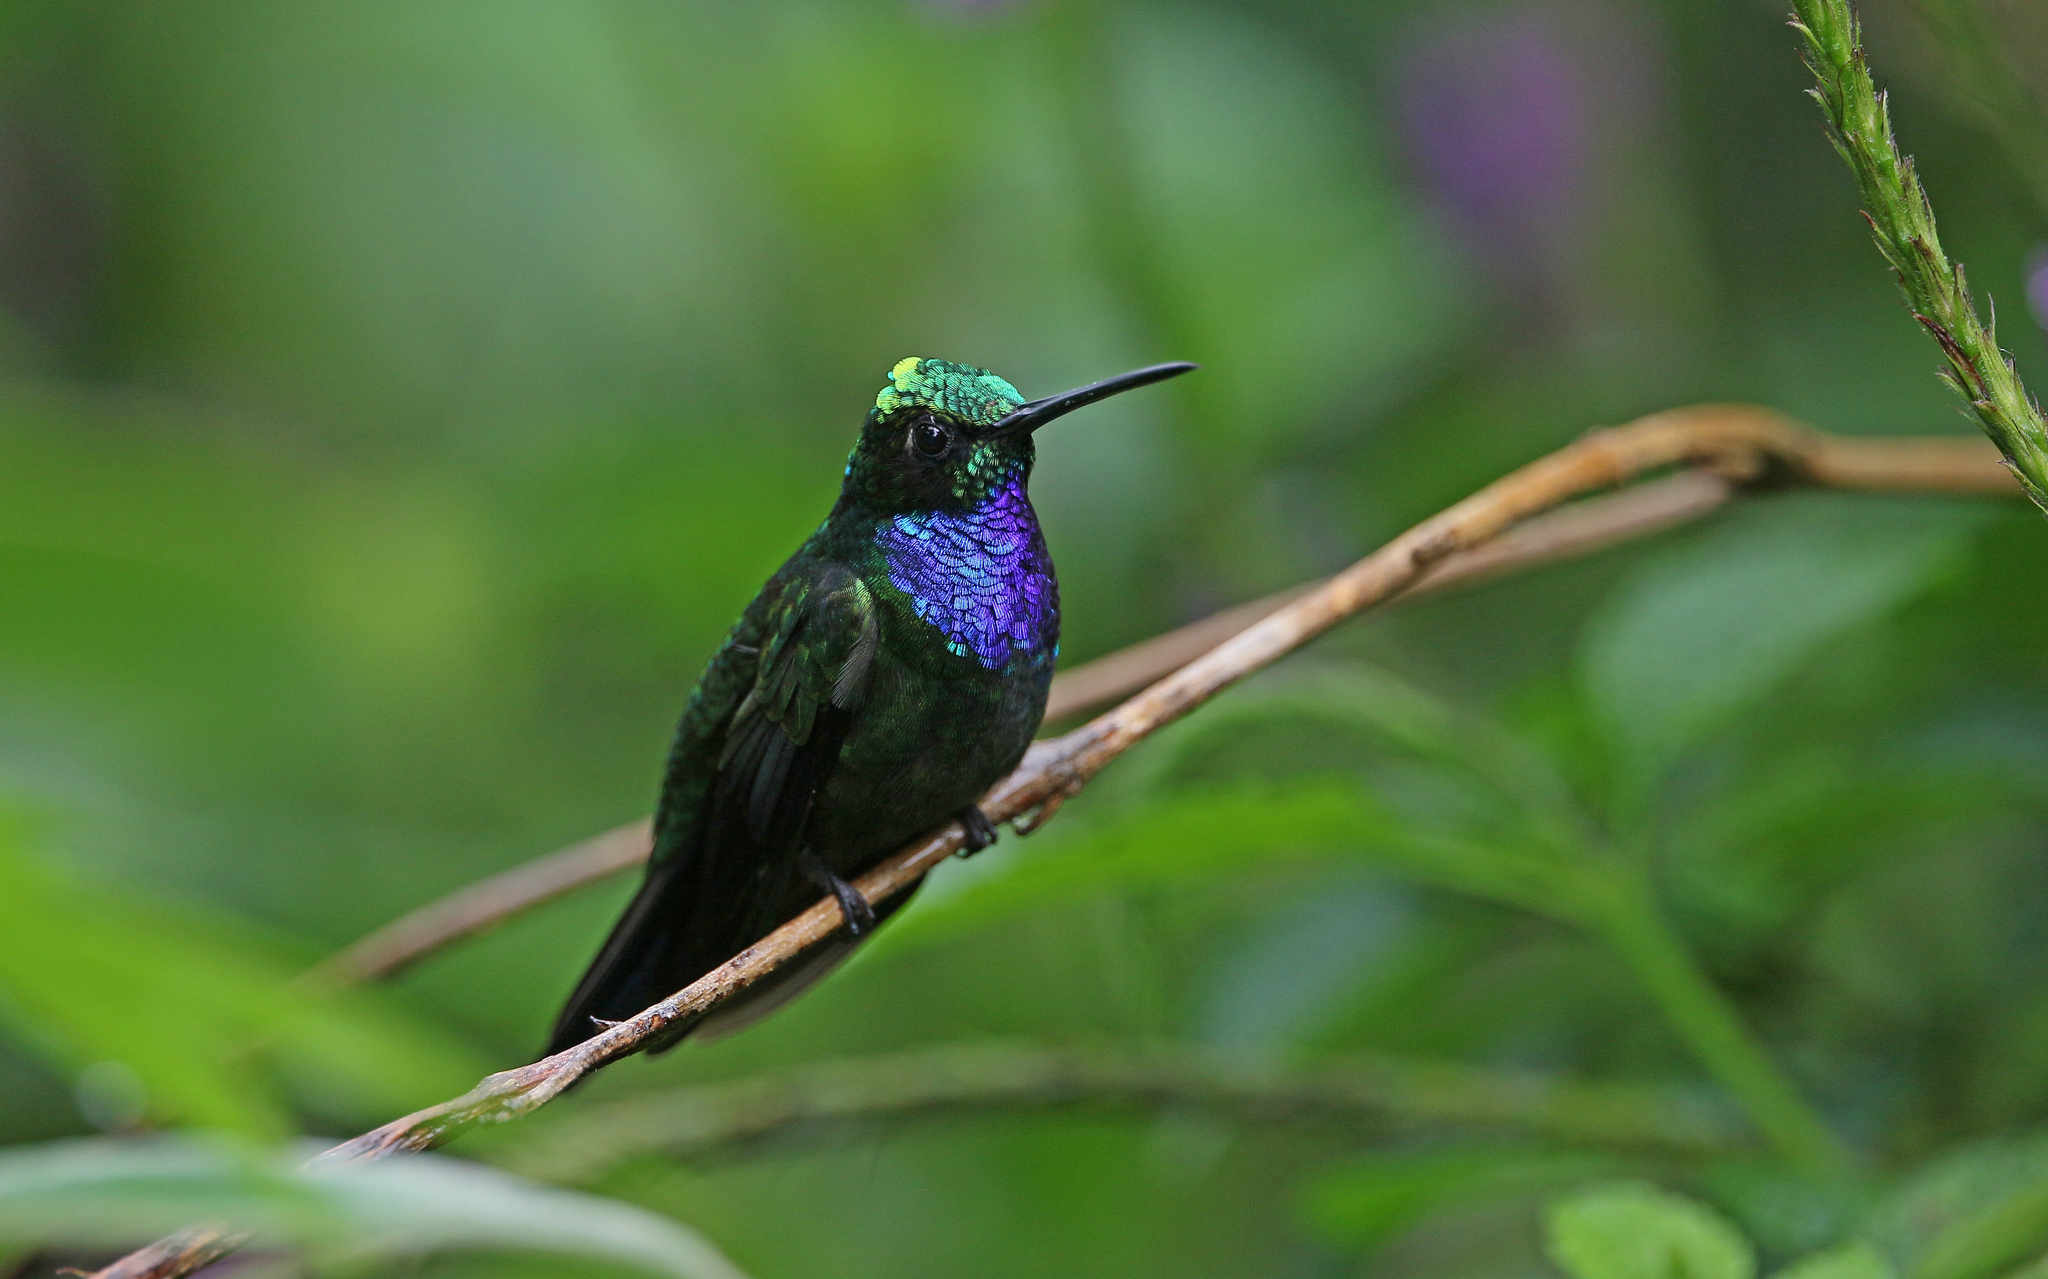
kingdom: Animalia
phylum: Chordata
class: Aves
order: Apodiformes
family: Trochilidae
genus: Campylopterus
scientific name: Campylopterus villaviscensio
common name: Napo sabrewing
